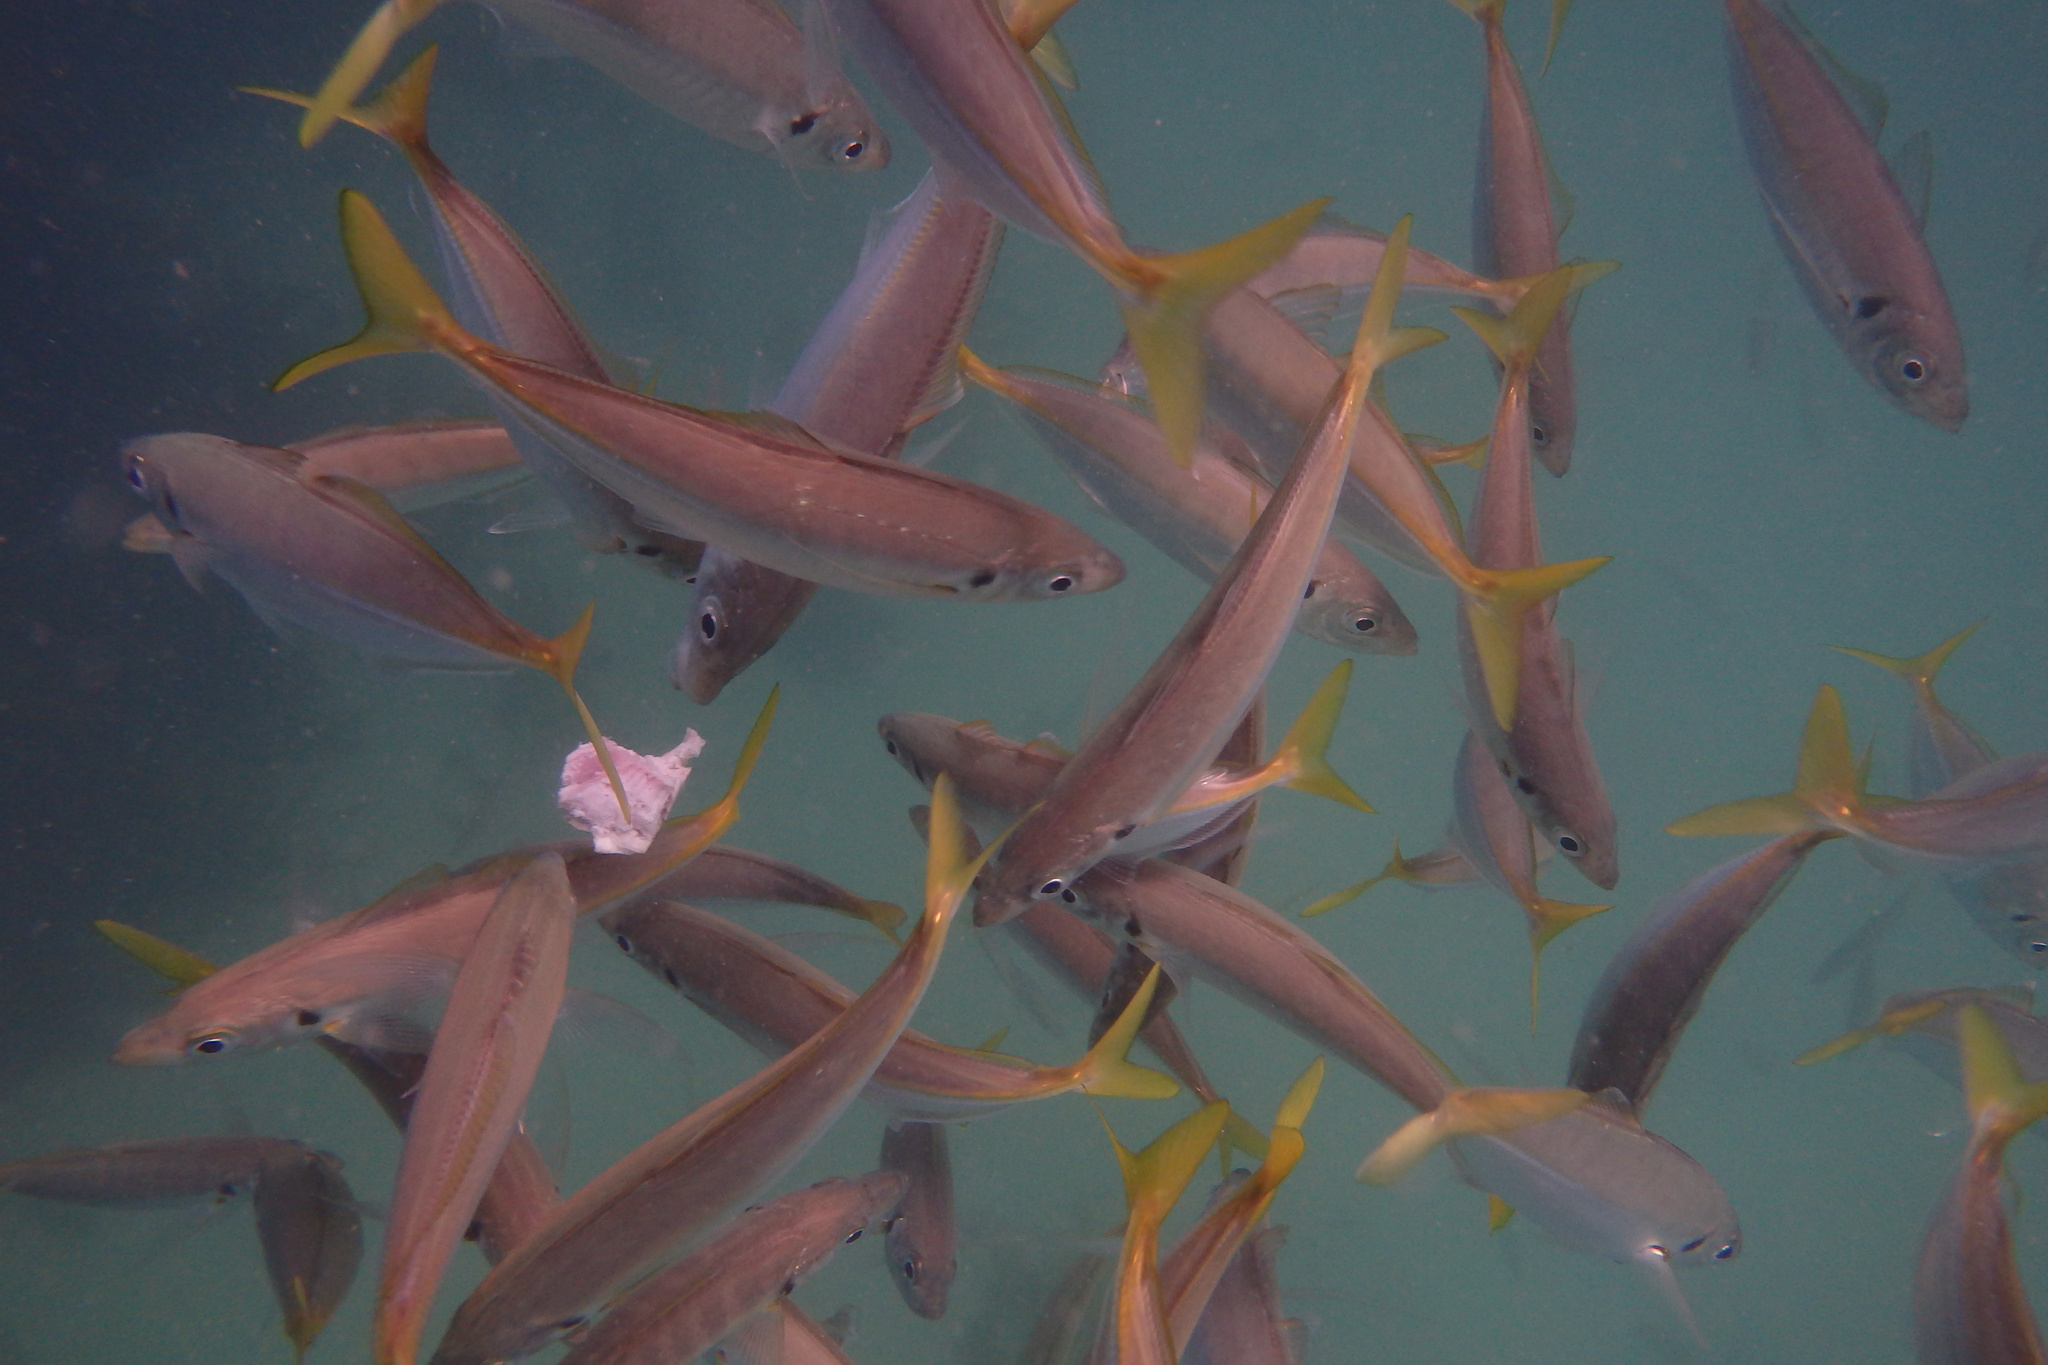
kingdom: Animalia
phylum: Chordata
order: Perciformes
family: Carangidae
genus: Trachurus
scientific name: Trachurus novaezelandiae
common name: Yellowtail horse mackerel
